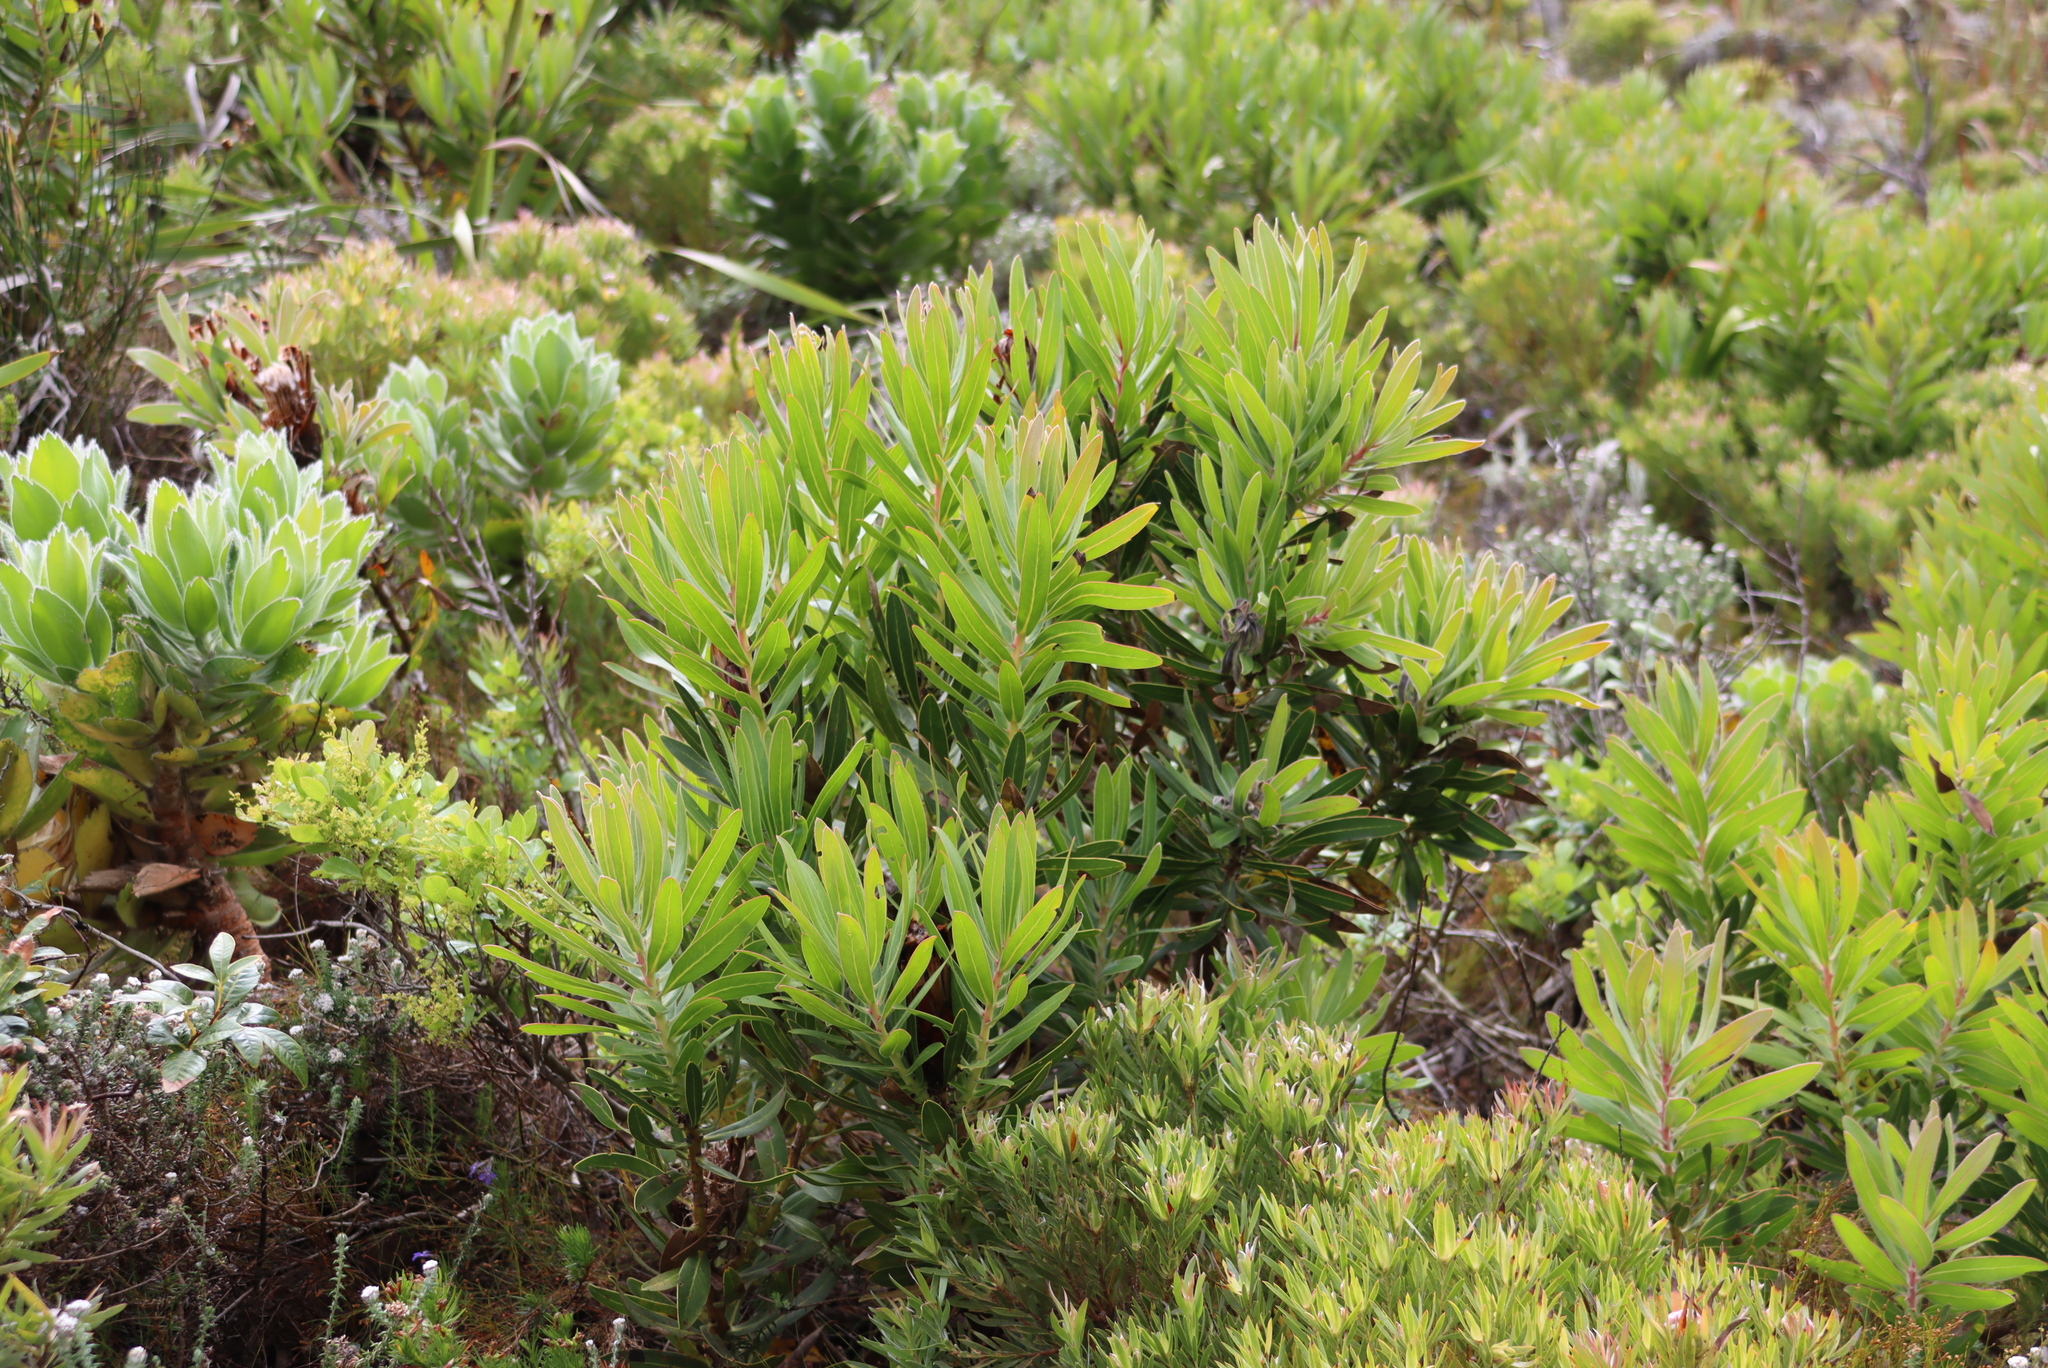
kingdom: Plantae
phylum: Tracheophyta
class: Magnoliopsida
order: Proteales
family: Proteaceae
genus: Protea
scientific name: Protea lepidocarpodendron
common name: Black-bearded protea
